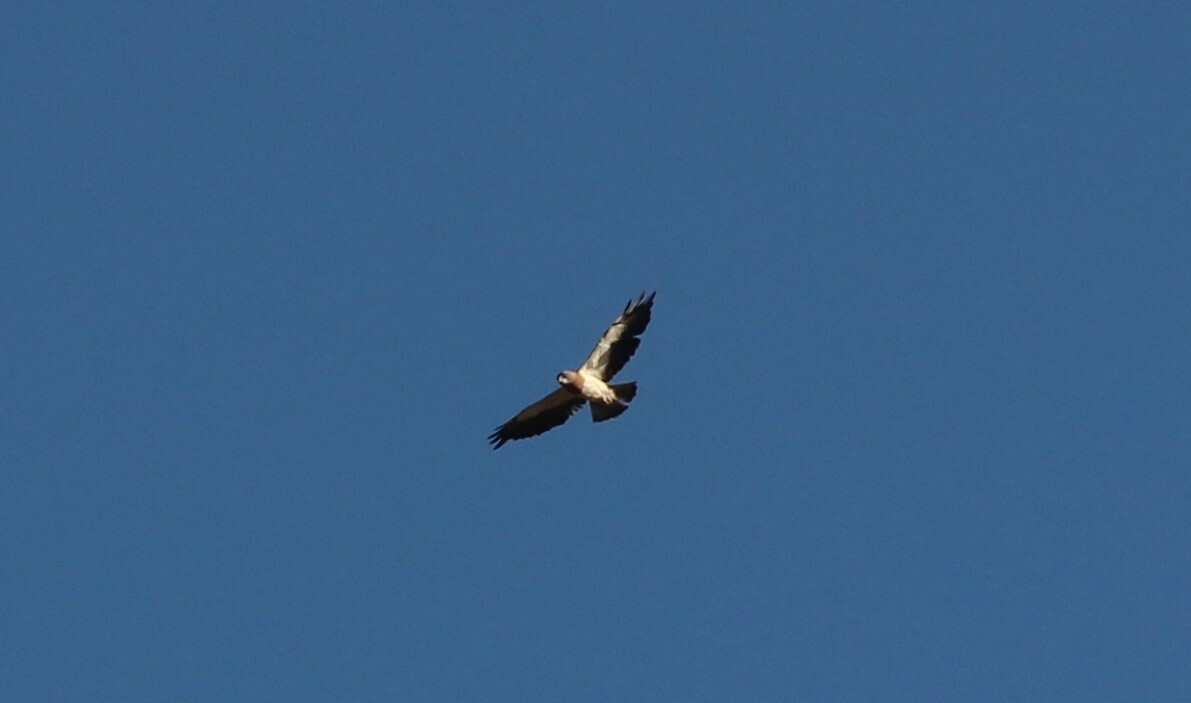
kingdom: Animalia
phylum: Chordata
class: Aves
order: Accipitriformes
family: Accipitridae
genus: Buteo
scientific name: Buteo swainsoni
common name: Swainson's hawk
